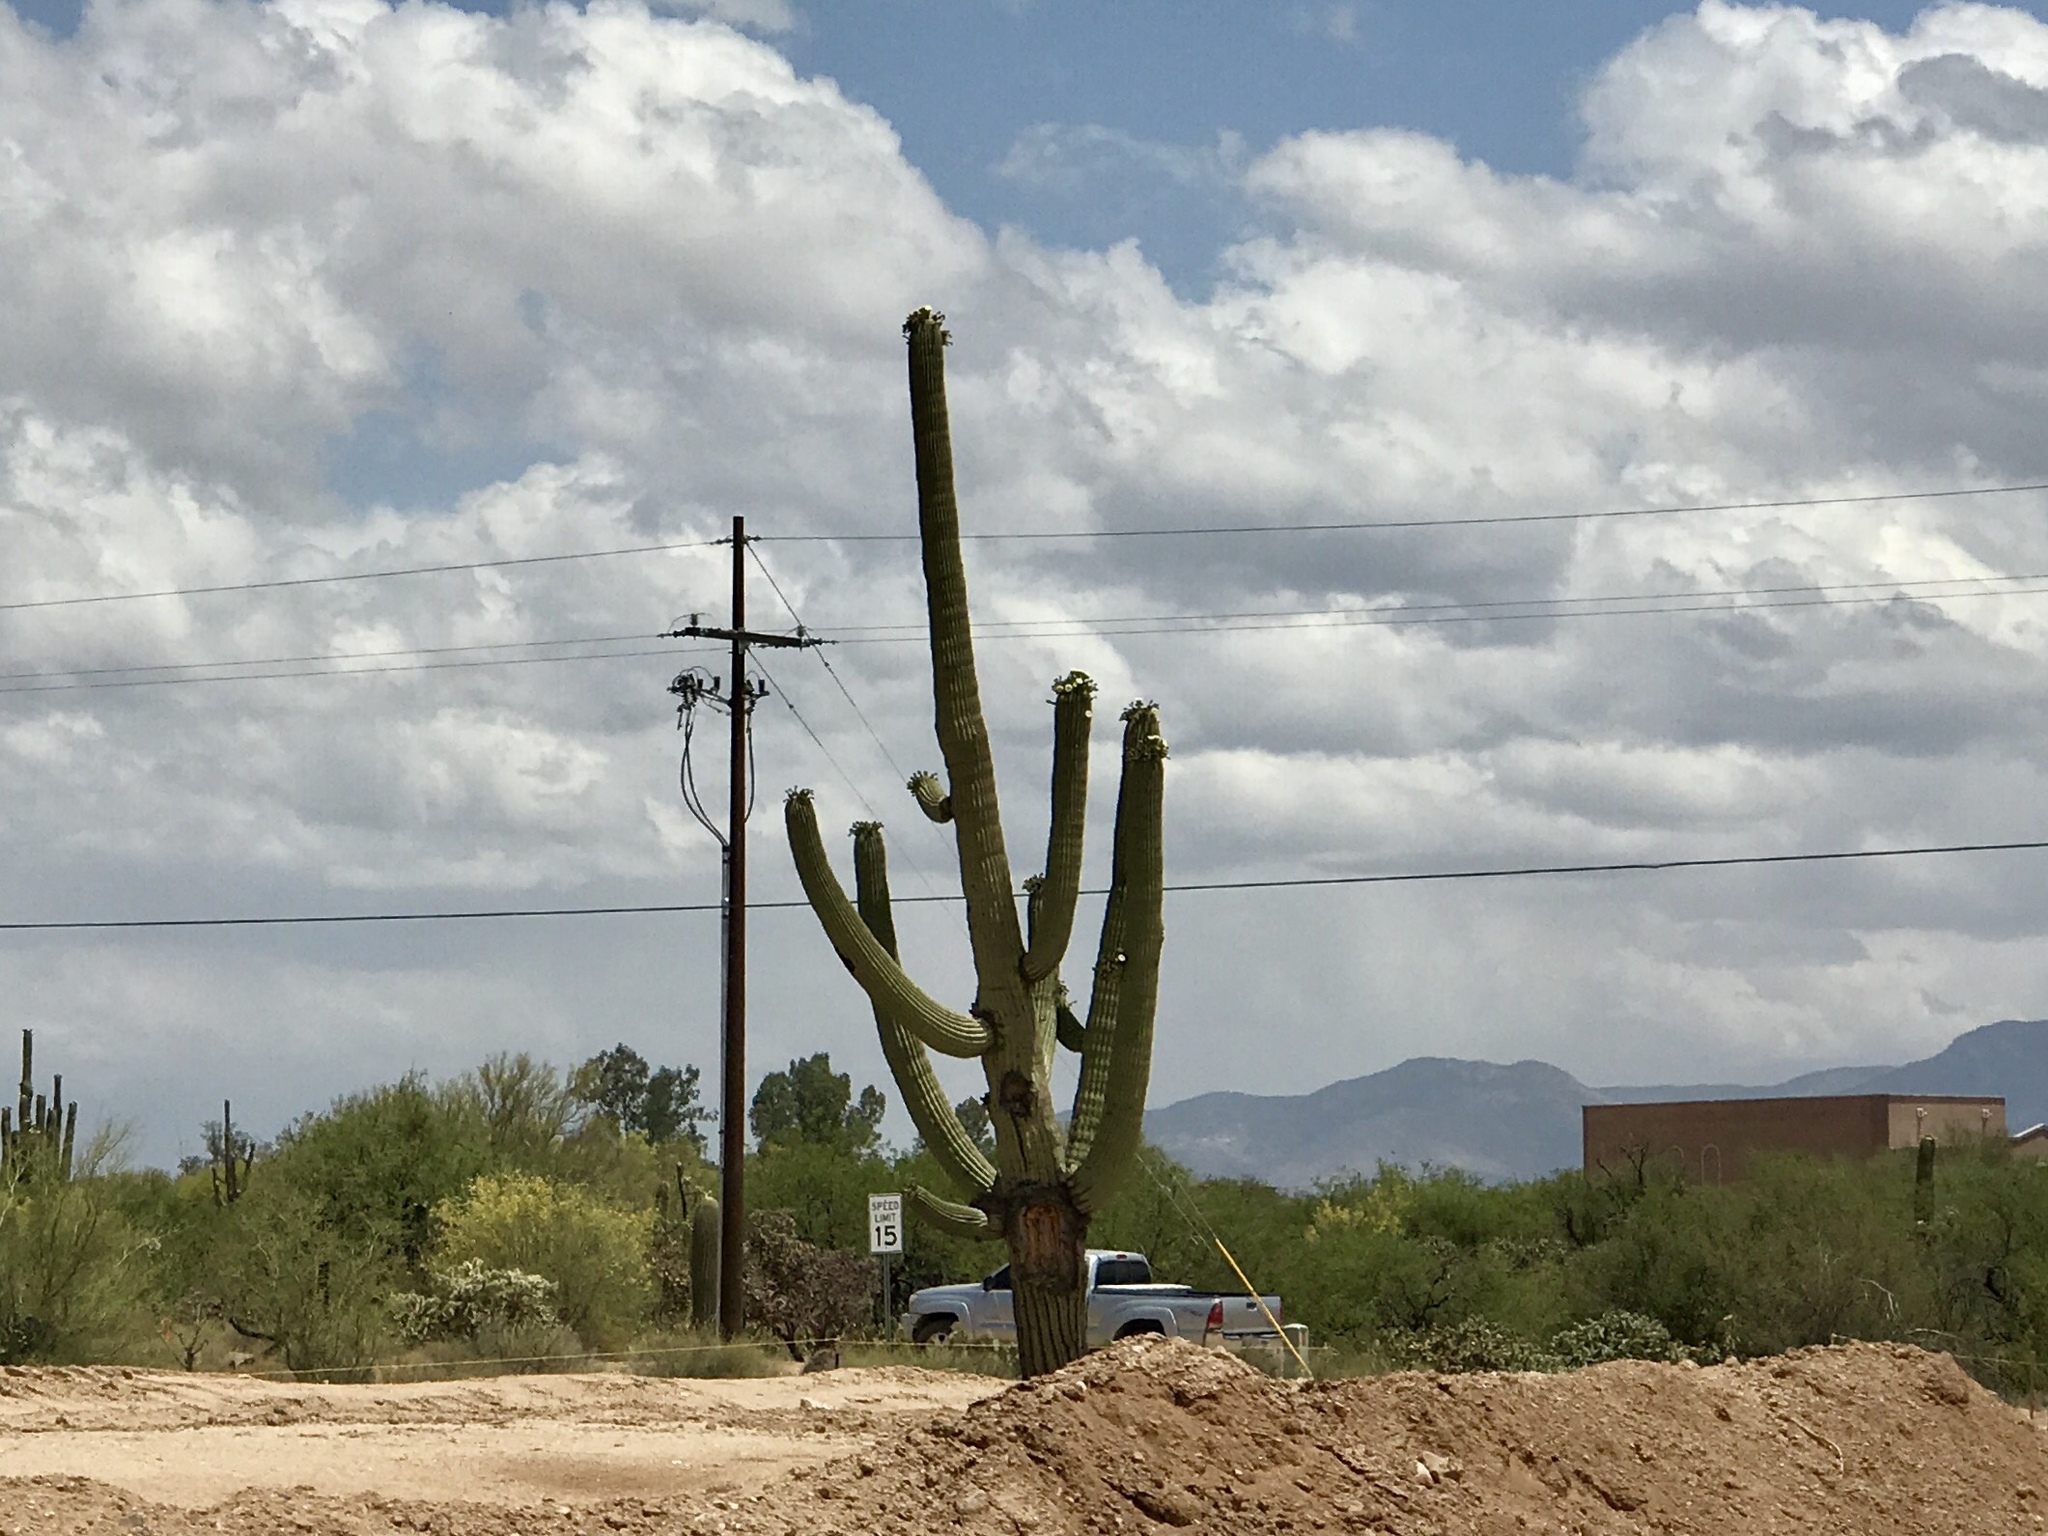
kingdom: Plantae
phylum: Tracheophyta
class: Magnoliopsida
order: Caryophyllales
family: Cactaceae
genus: Carnegiea
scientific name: Carnegiea gigantea
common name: Saguaro
